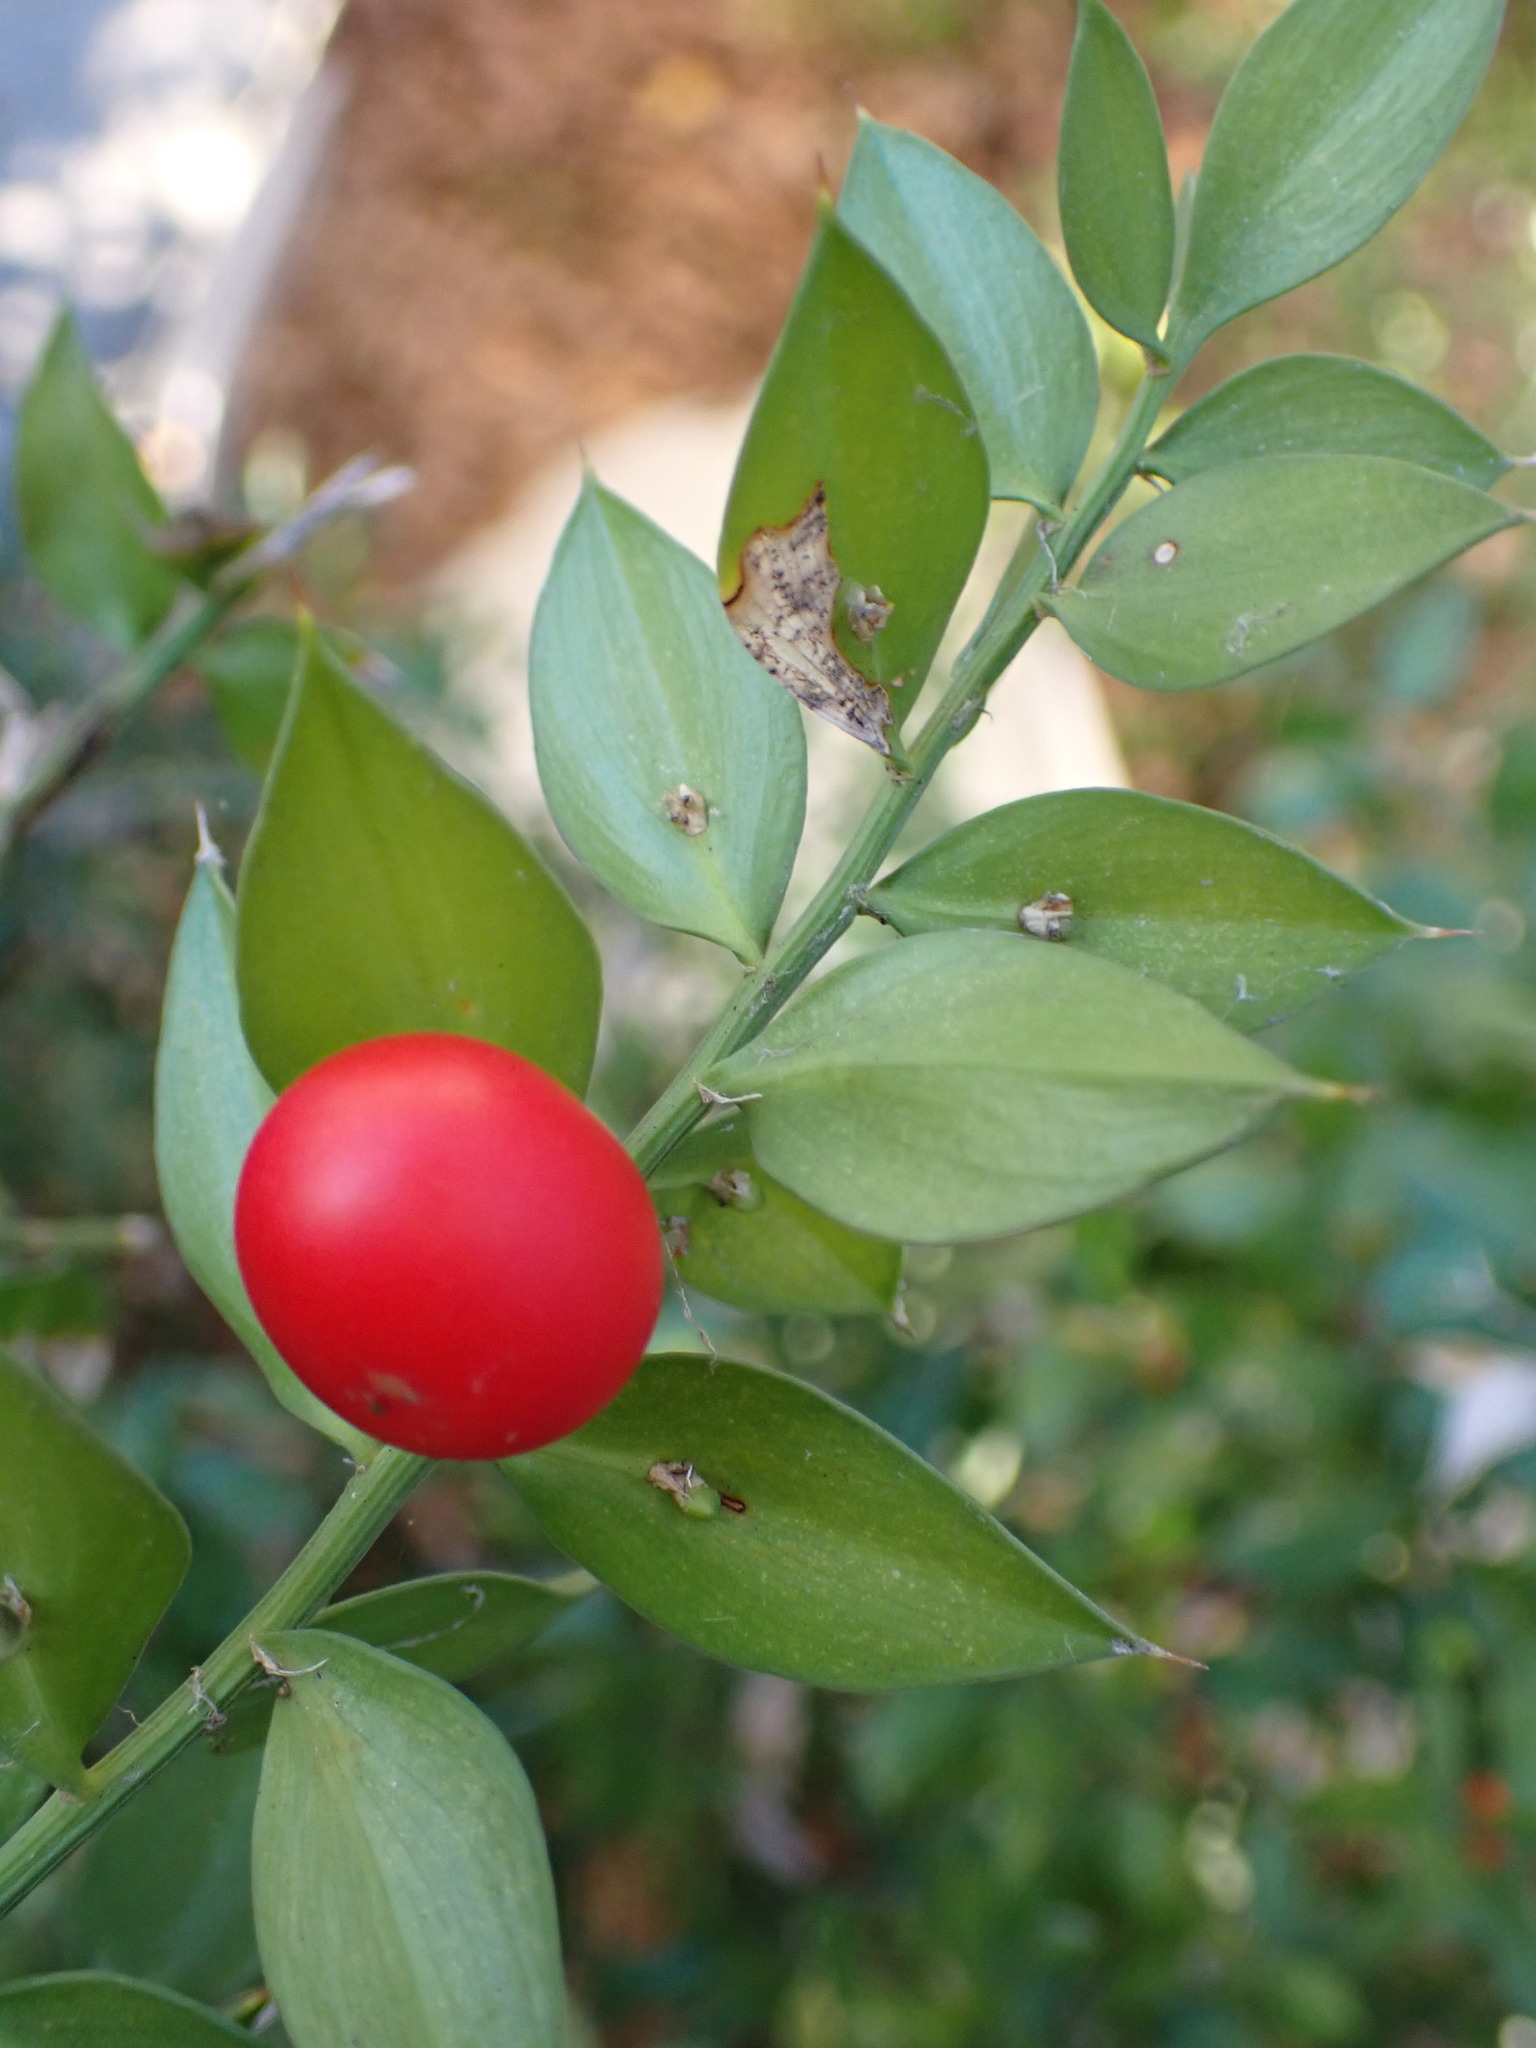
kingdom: Plantae
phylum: Tracheophyta
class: Liliopsida
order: Asparagales
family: Asparagaceae
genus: Ruscus
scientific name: Ruscus aculeatus
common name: Butcher's-broom
